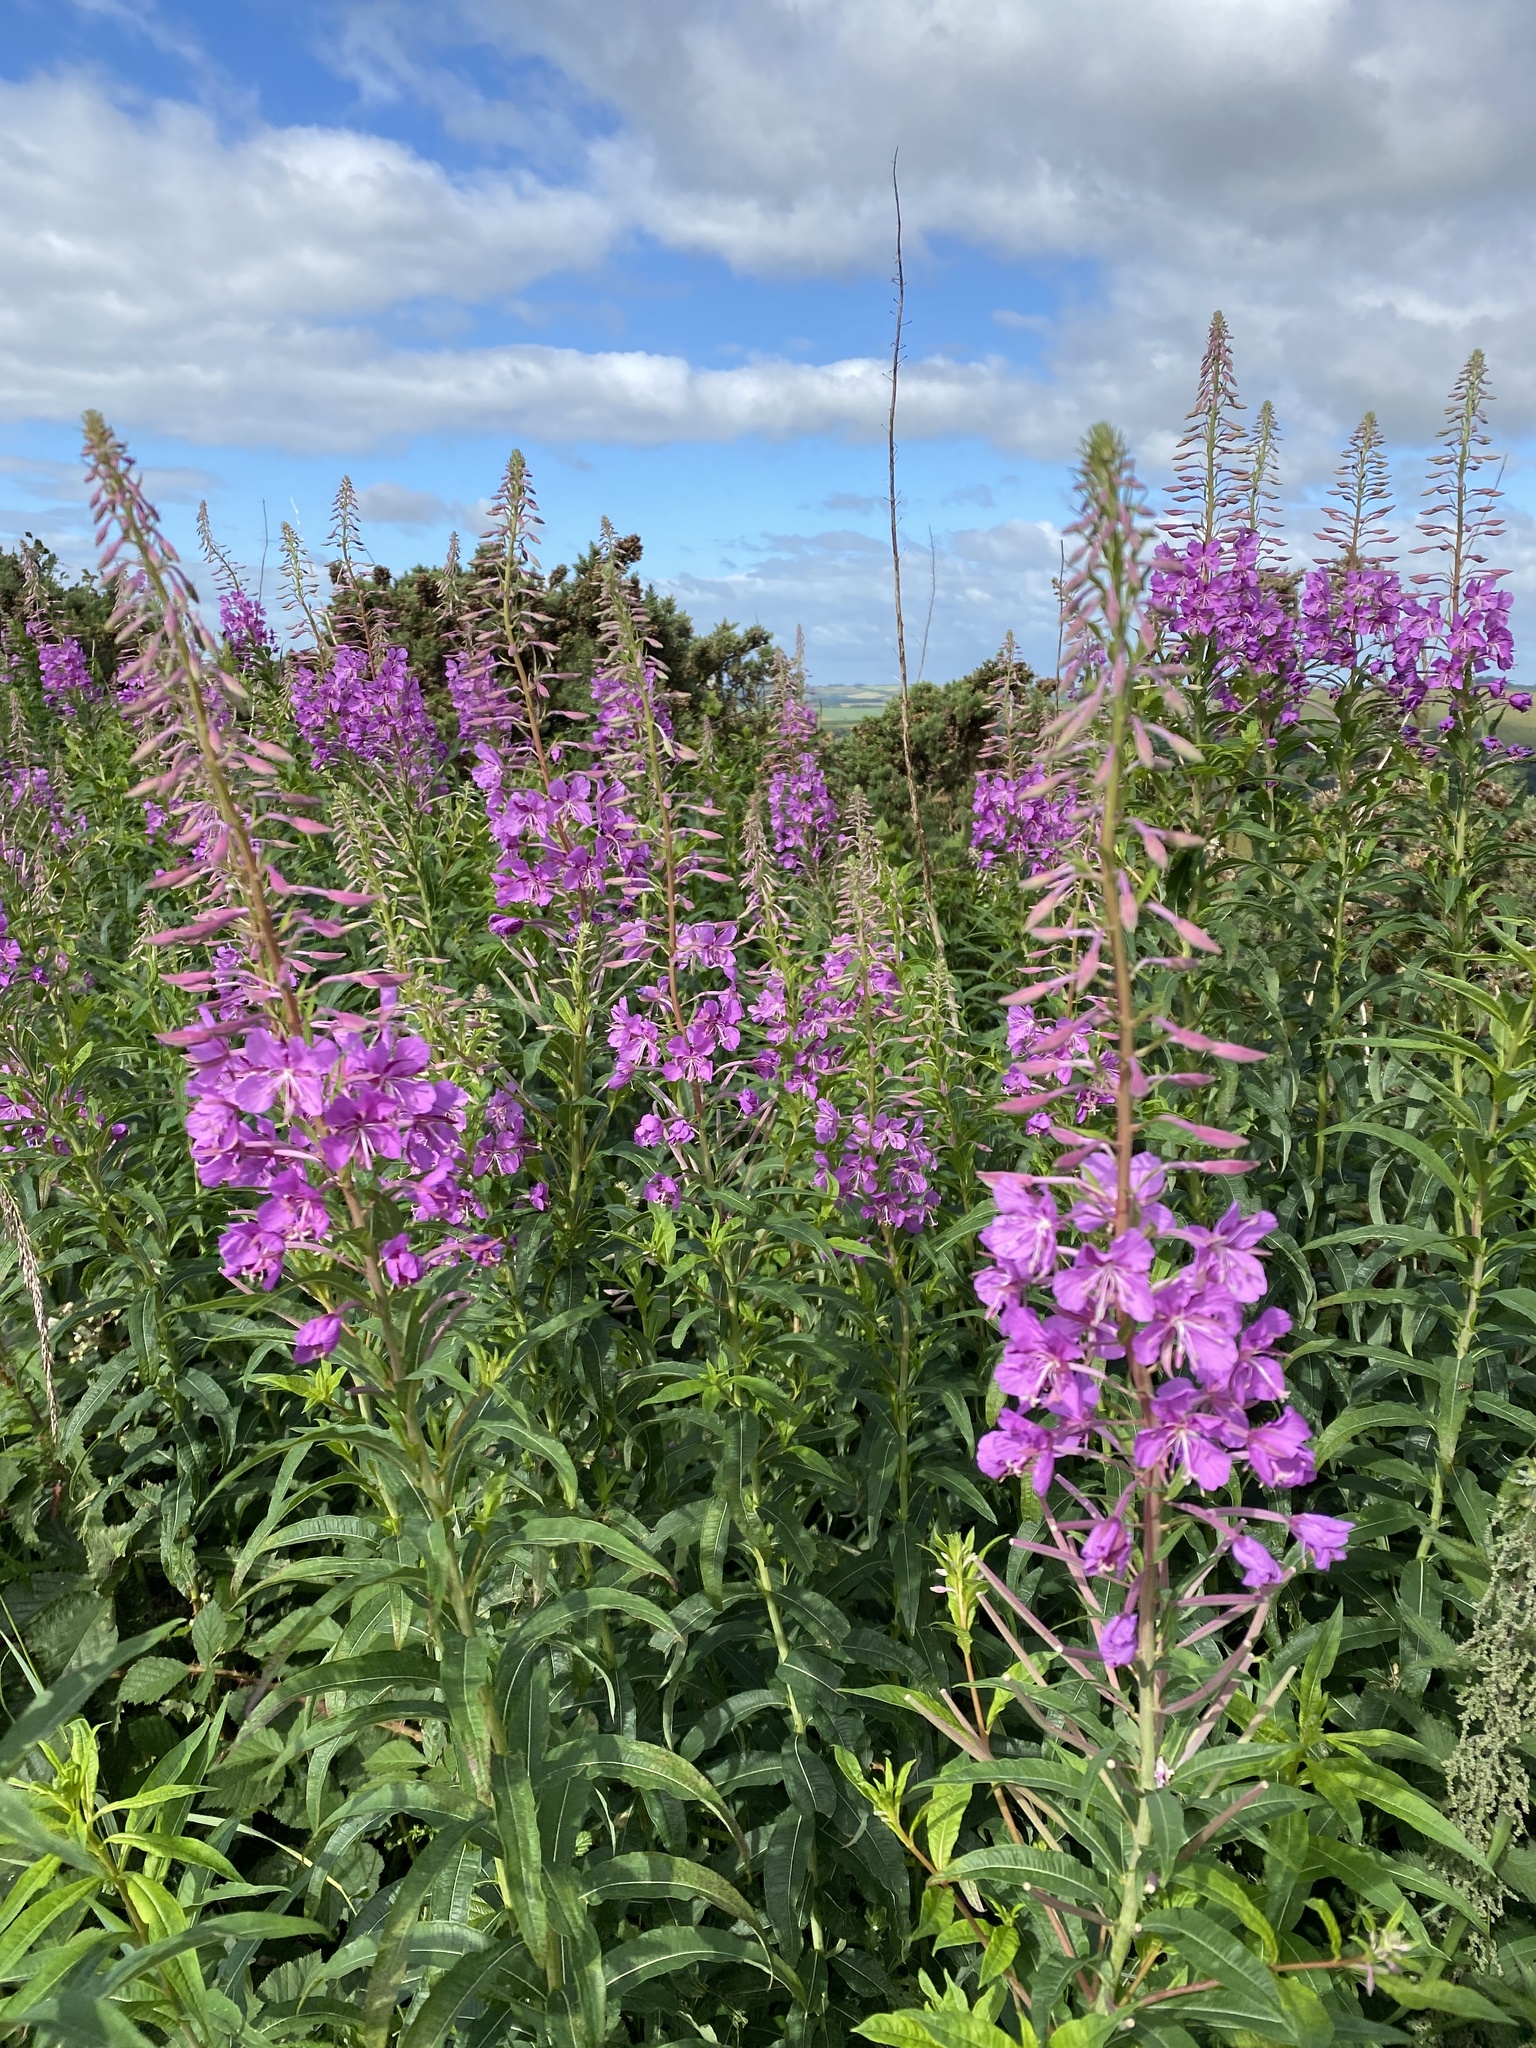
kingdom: Plantae
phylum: Tracheophyta
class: Magnoliopsida
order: Myrtales
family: Onagraceae
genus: Chamaenerion
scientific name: Chamaenerion angustifolium
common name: Fireweed
